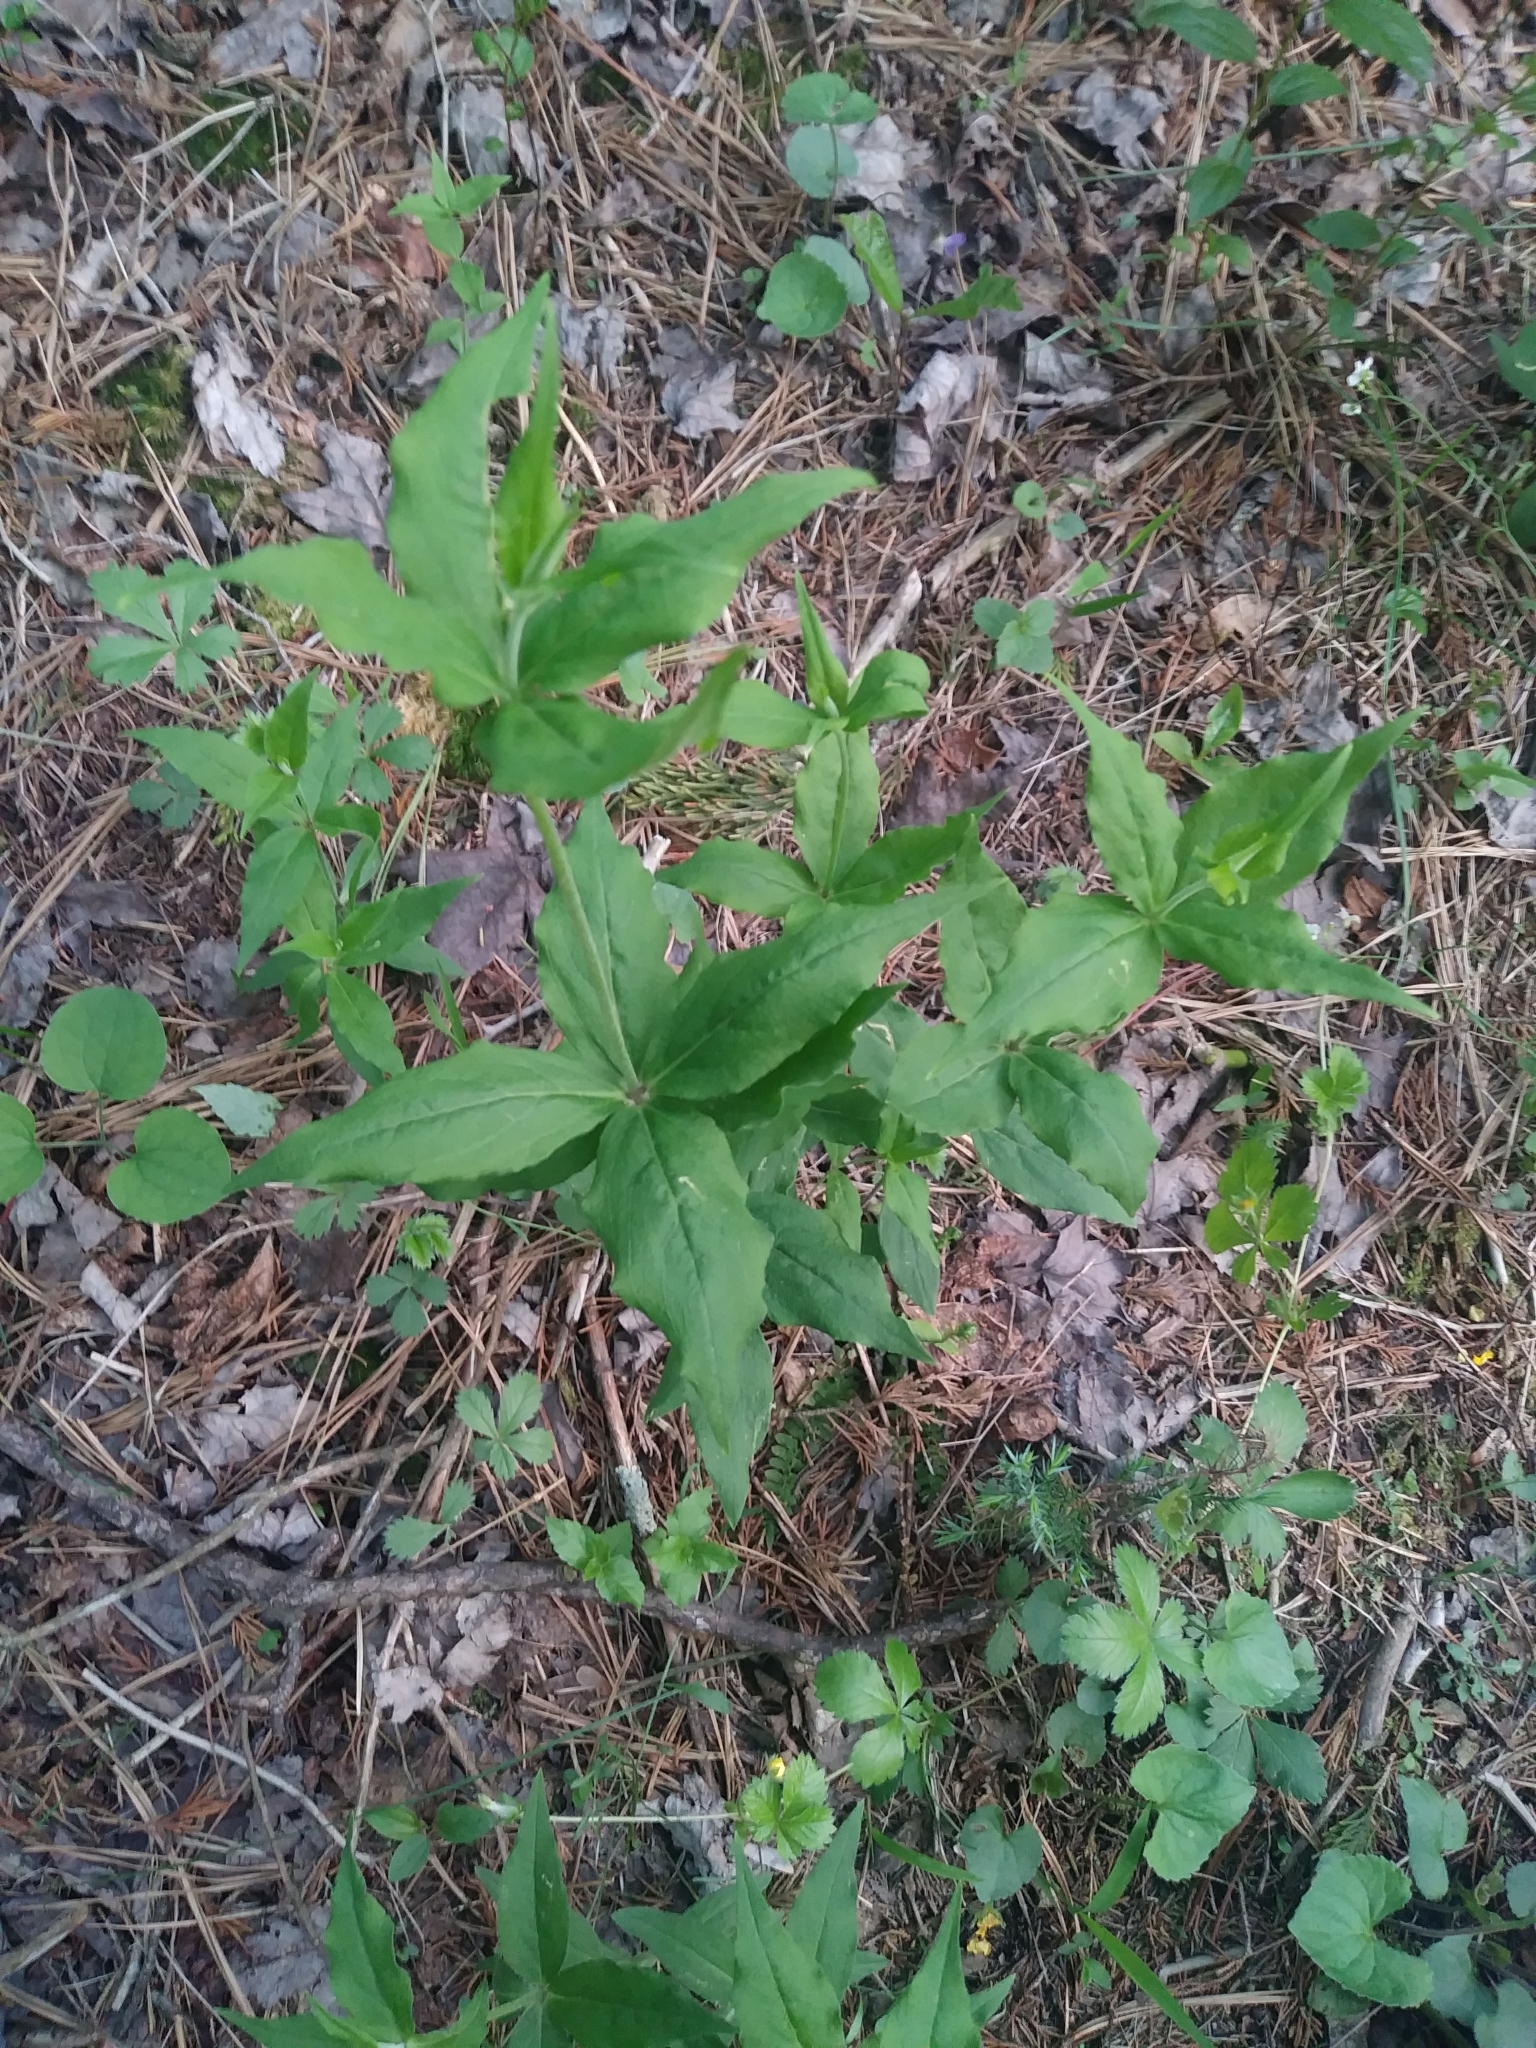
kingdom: Plantae
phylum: Tracheophyta
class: Magnoliopsida
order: Caryophyllales
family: Caryophyllaceae
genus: Silene
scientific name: Silene stellata
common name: Starry campion
